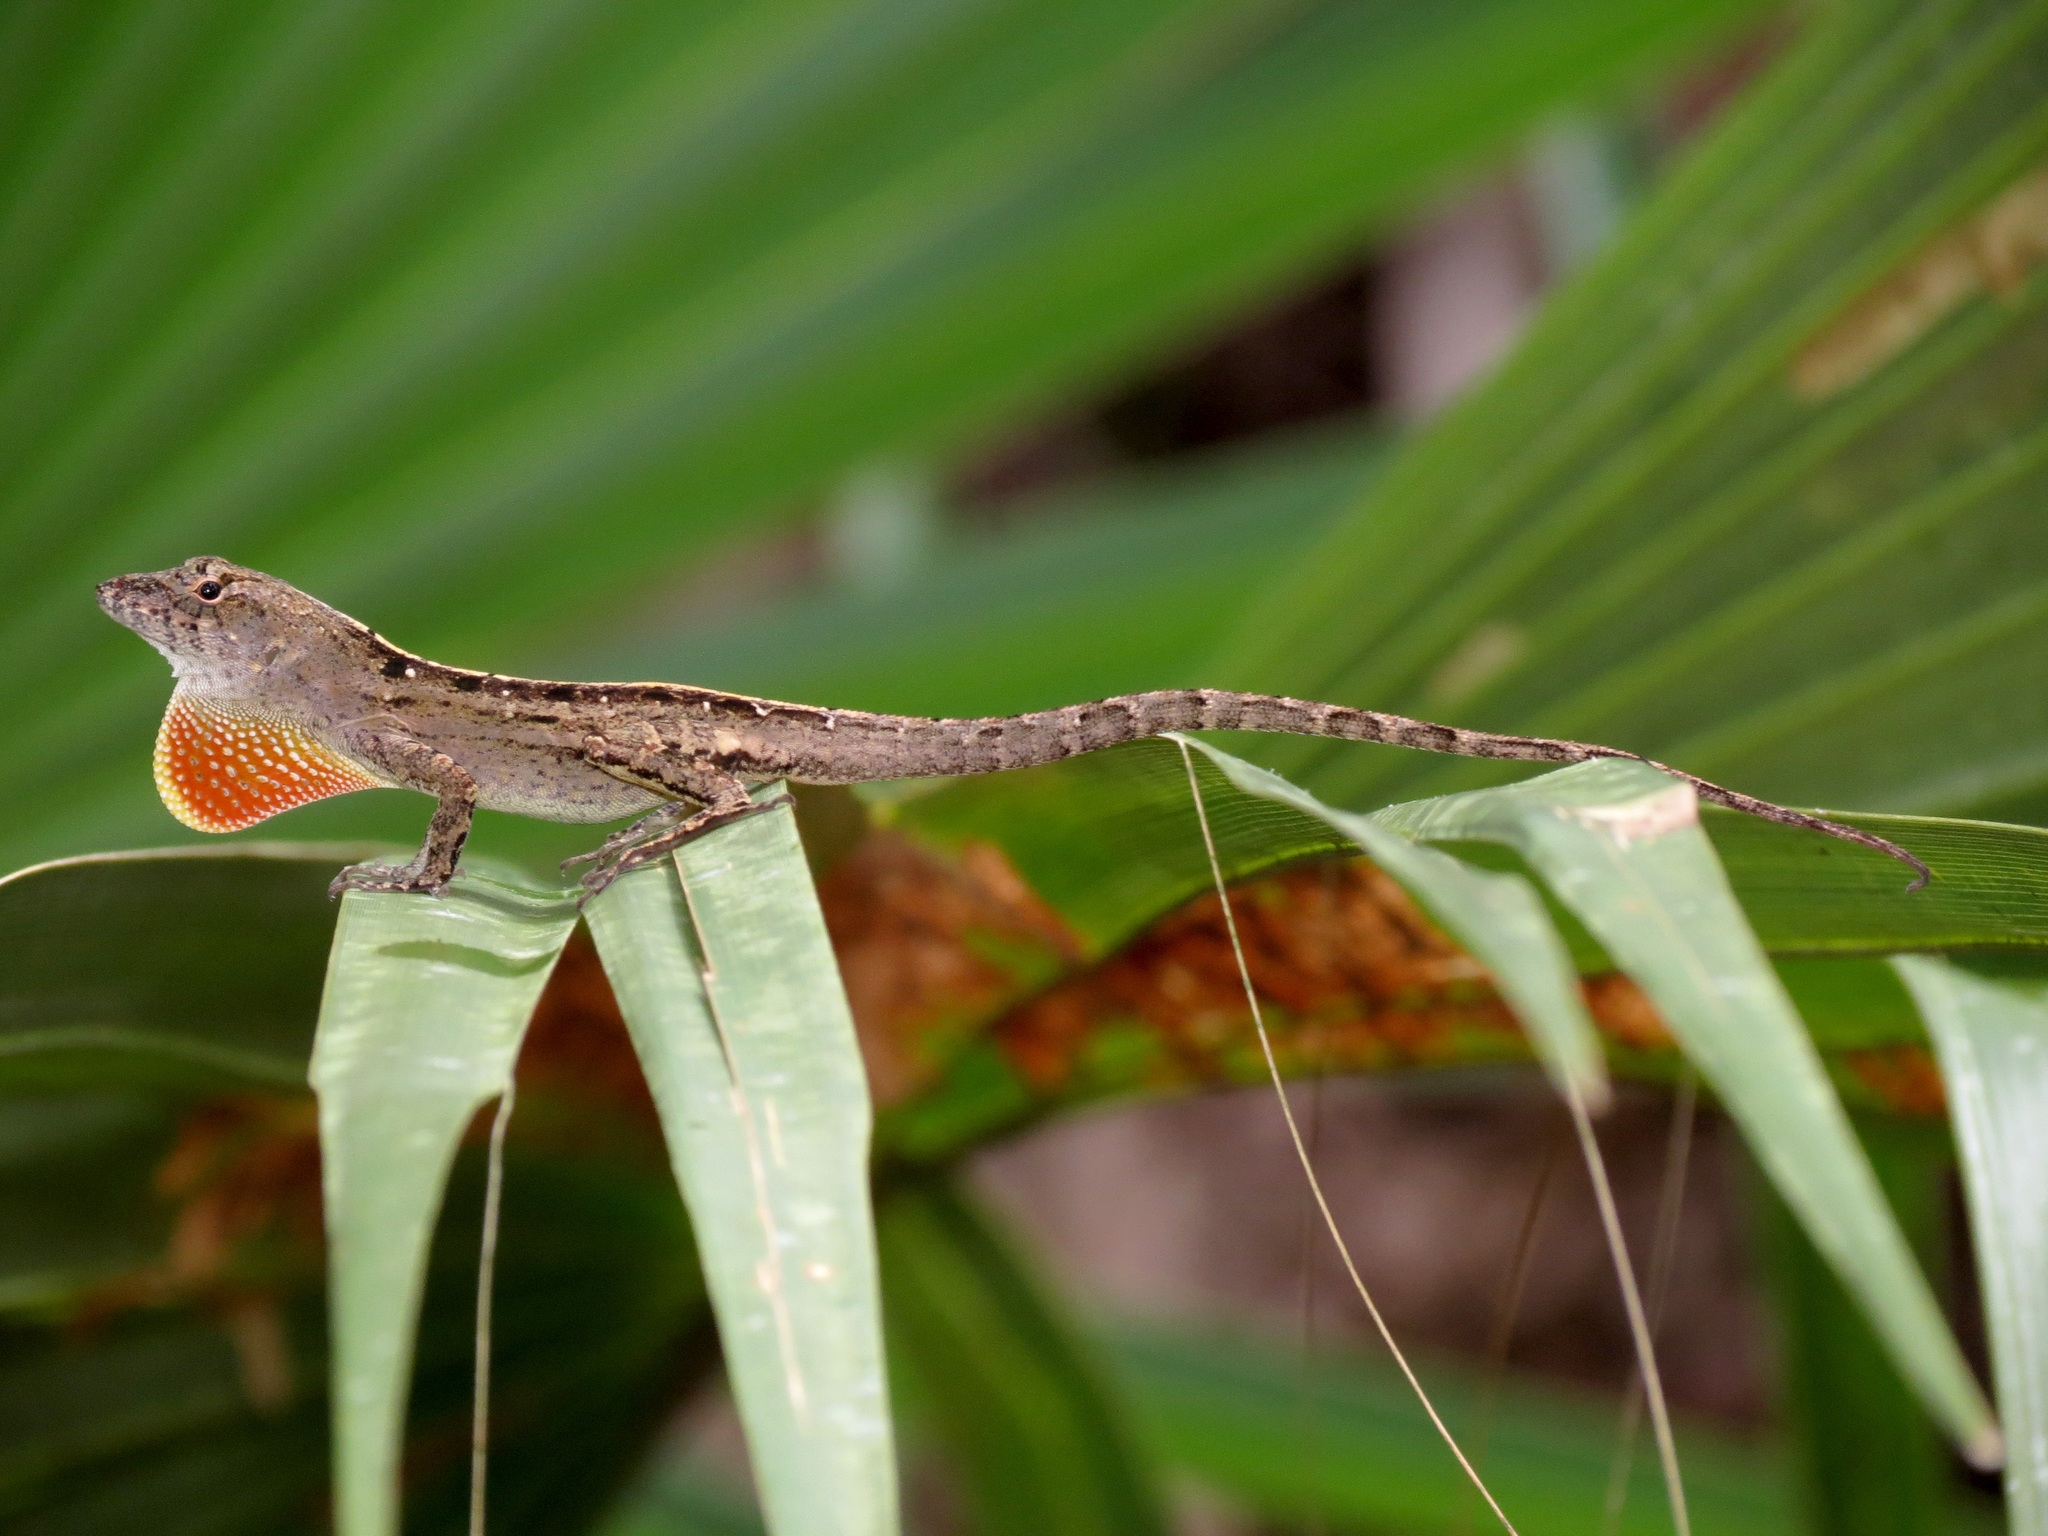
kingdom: Animalia
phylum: Chordata
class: Squamata
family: Dactyloidae
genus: Anolis
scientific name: Anolis sagrei
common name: Brown anole
